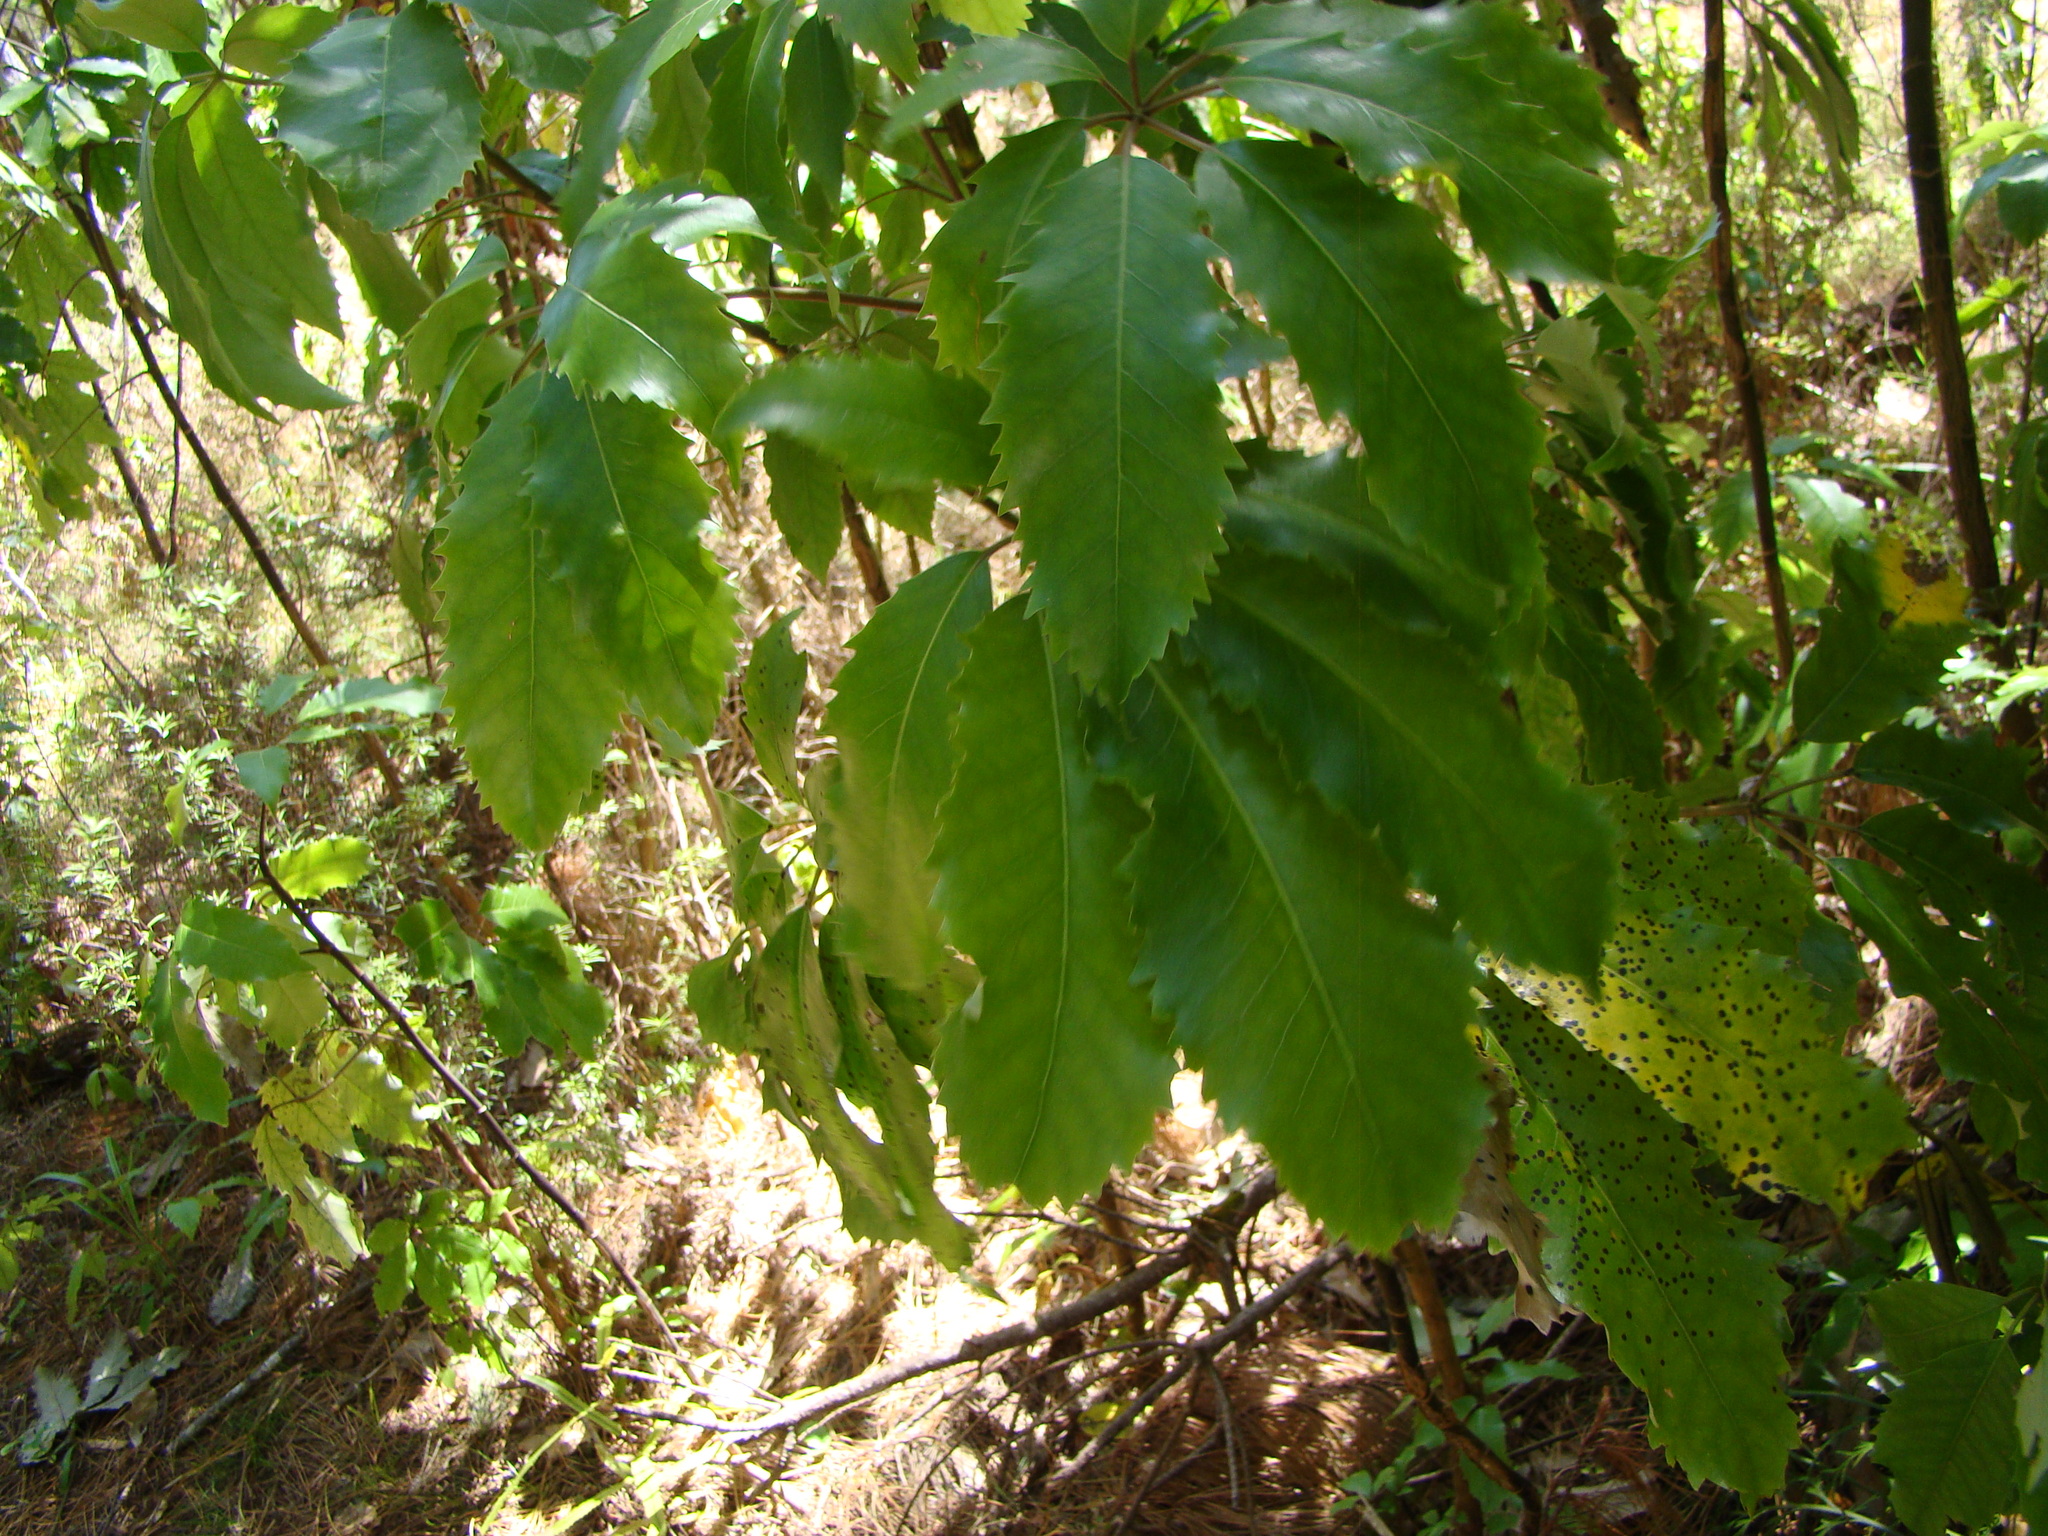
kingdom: Plantae
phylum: Tracheophyta
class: Magnoliopsida
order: Apiales
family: Araliaceae
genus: Neopanax
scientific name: Neopanax arboreus
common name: Five-fingers
